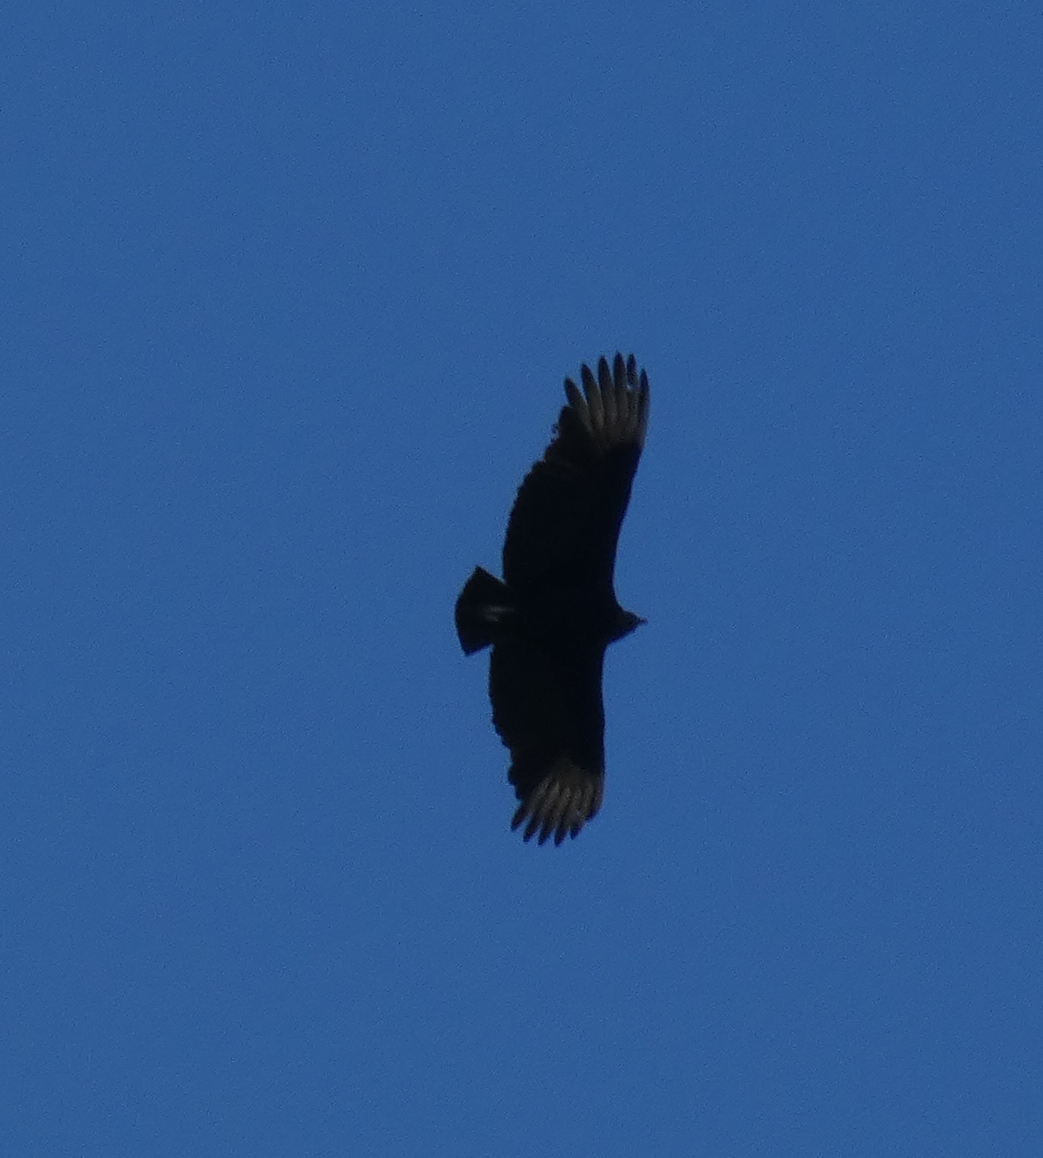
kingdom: Animalia
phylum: Chordata
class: Aves
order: Accipitriformes
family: Cathartidae
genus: Coragyps
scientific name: Coragyps atratus
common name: Black vulture
